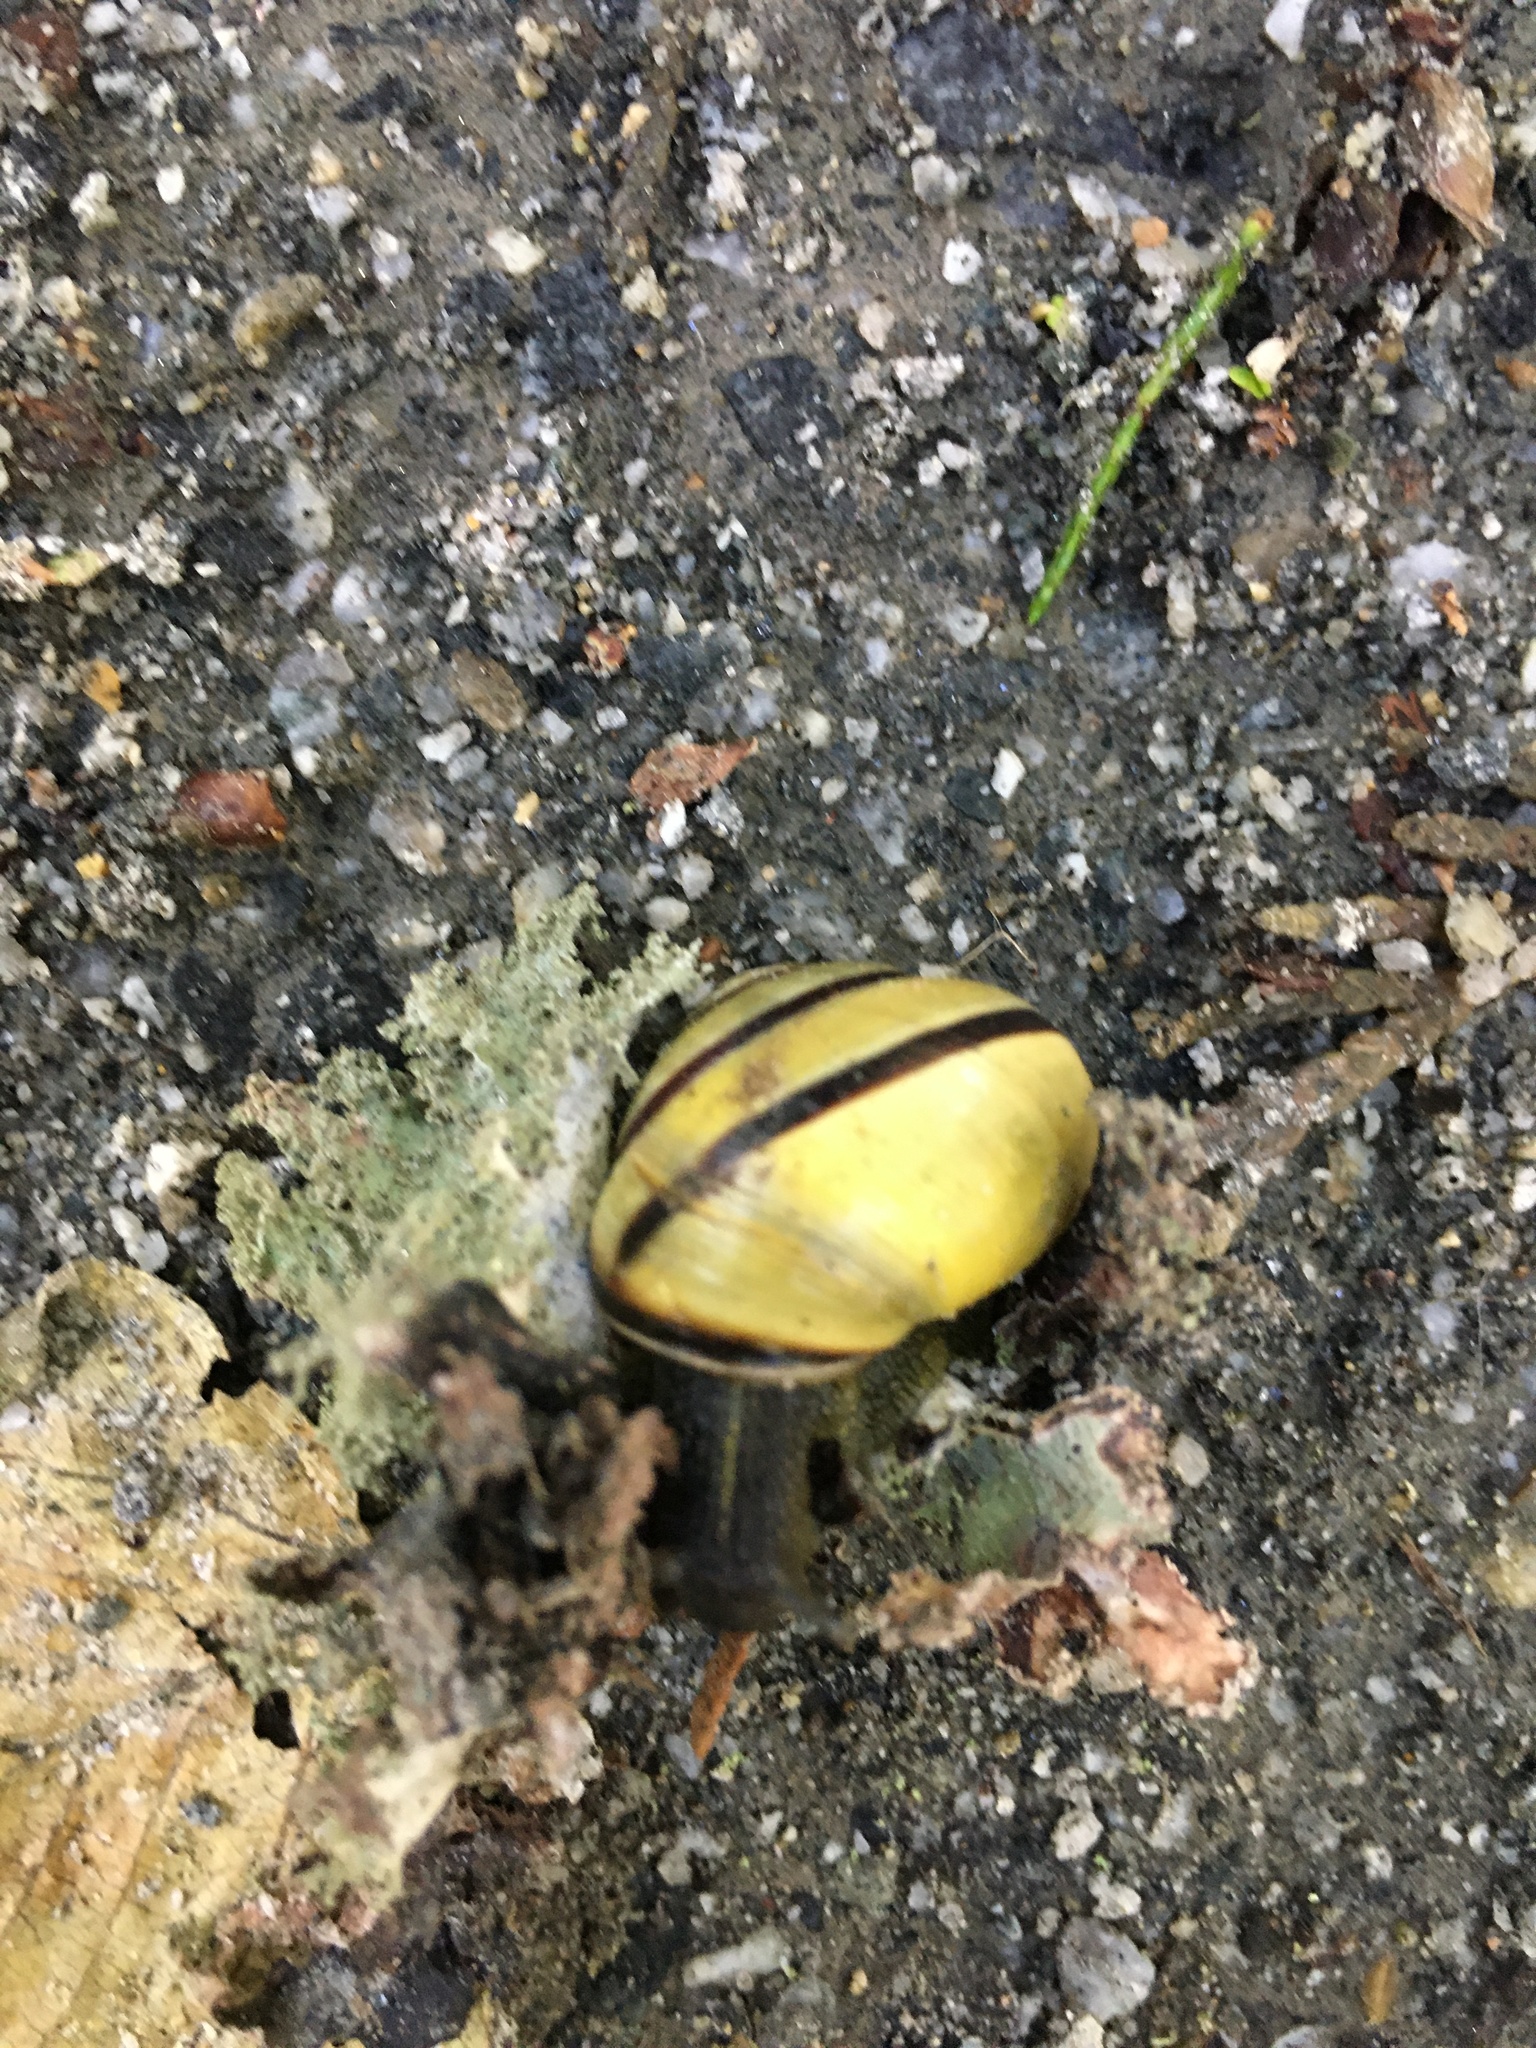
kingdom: Animalia
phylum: Mollusca
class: Gastropoda
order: Stylommatophora
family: Helicidae
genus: Cepaea
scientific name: Cepaea nemoralis
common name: Grovesnail
